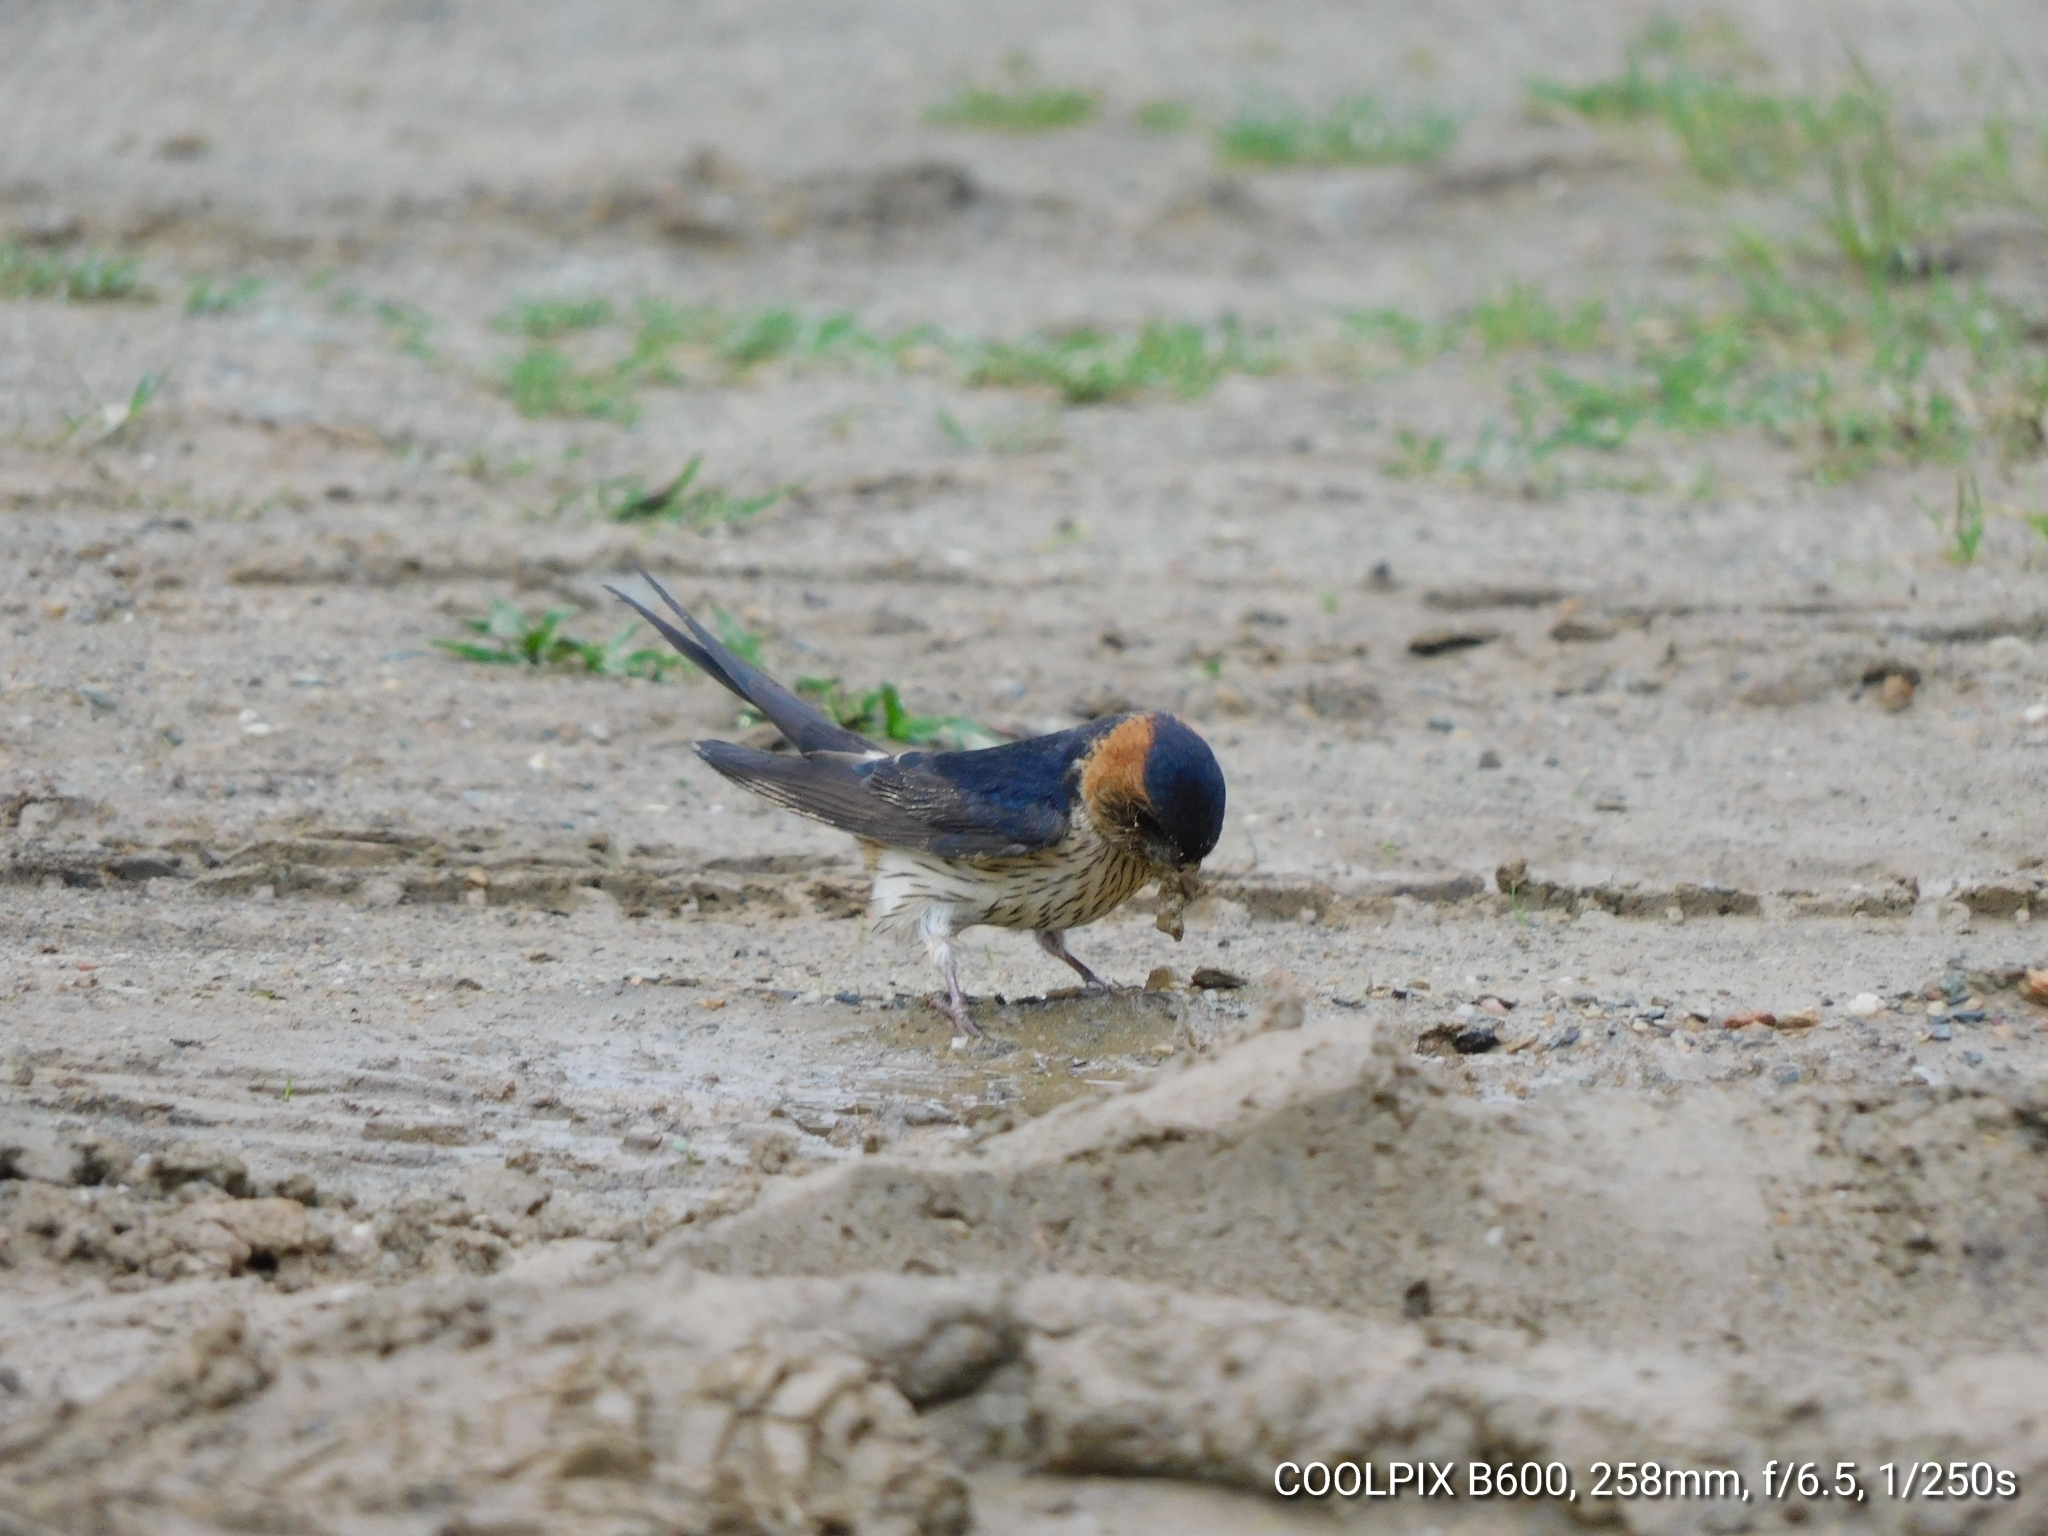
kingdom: Animalia
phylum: Chordata
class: Aves
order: Passeriformes
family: Hirundinidae
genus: Cecropis
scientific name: Cecropis daurica
